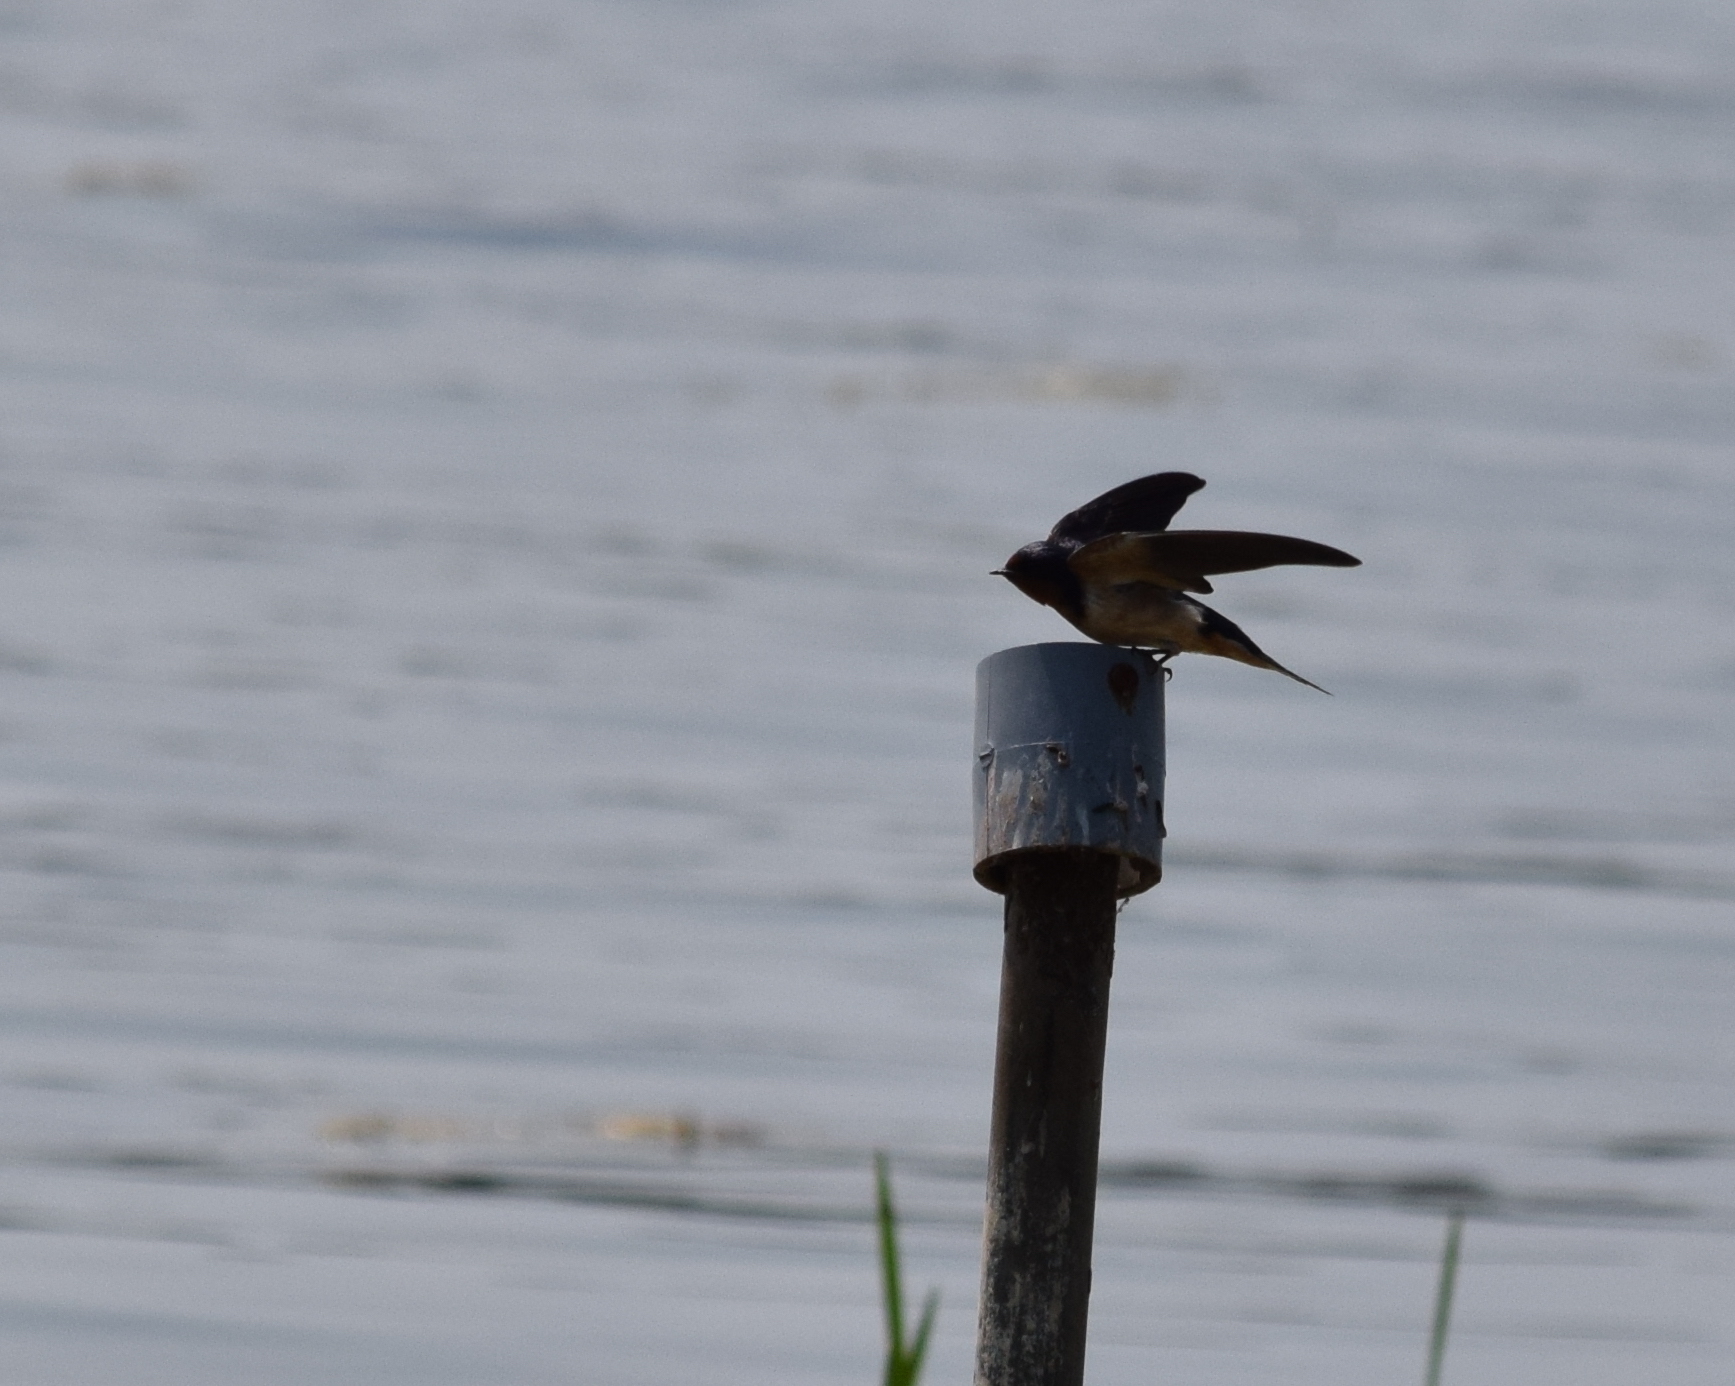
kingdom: Animalia
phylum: Chordata
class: Aves
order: Passeriformes
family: Hirundinidae
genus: Hirundo
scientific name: Hirundo rustica
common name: Barn swallow
